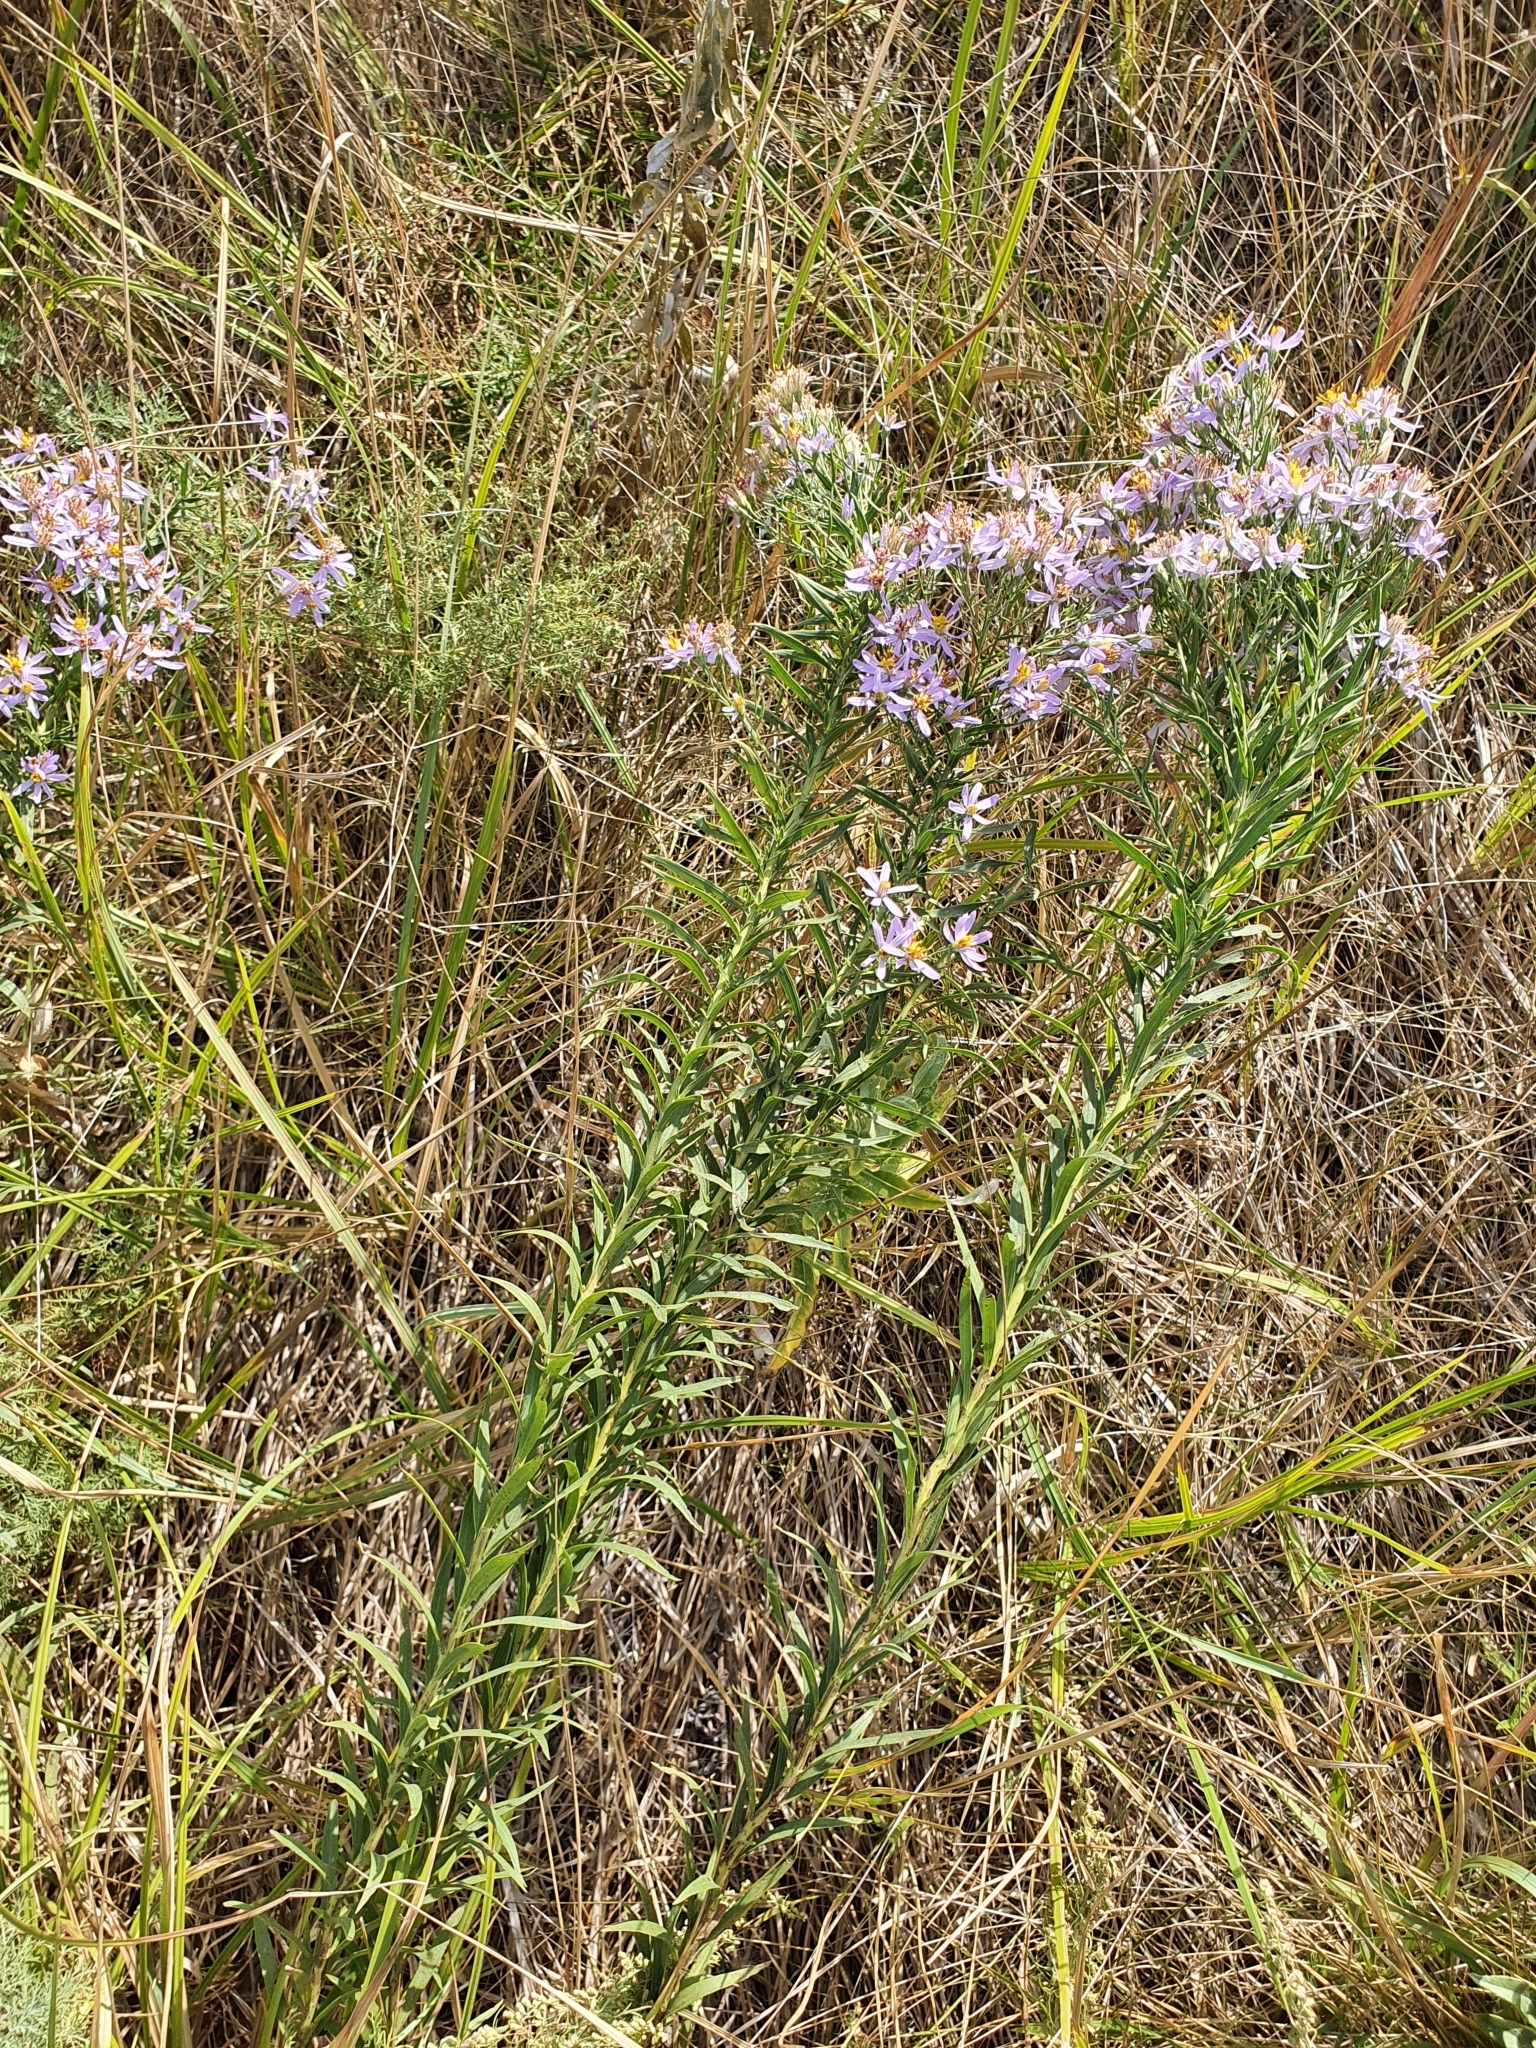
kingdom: Plantae
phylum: Tracheophyta
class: Magnoliopsida
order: Asterales
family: Asteraceae
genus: Galatella
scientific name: Galatella sedifolia
